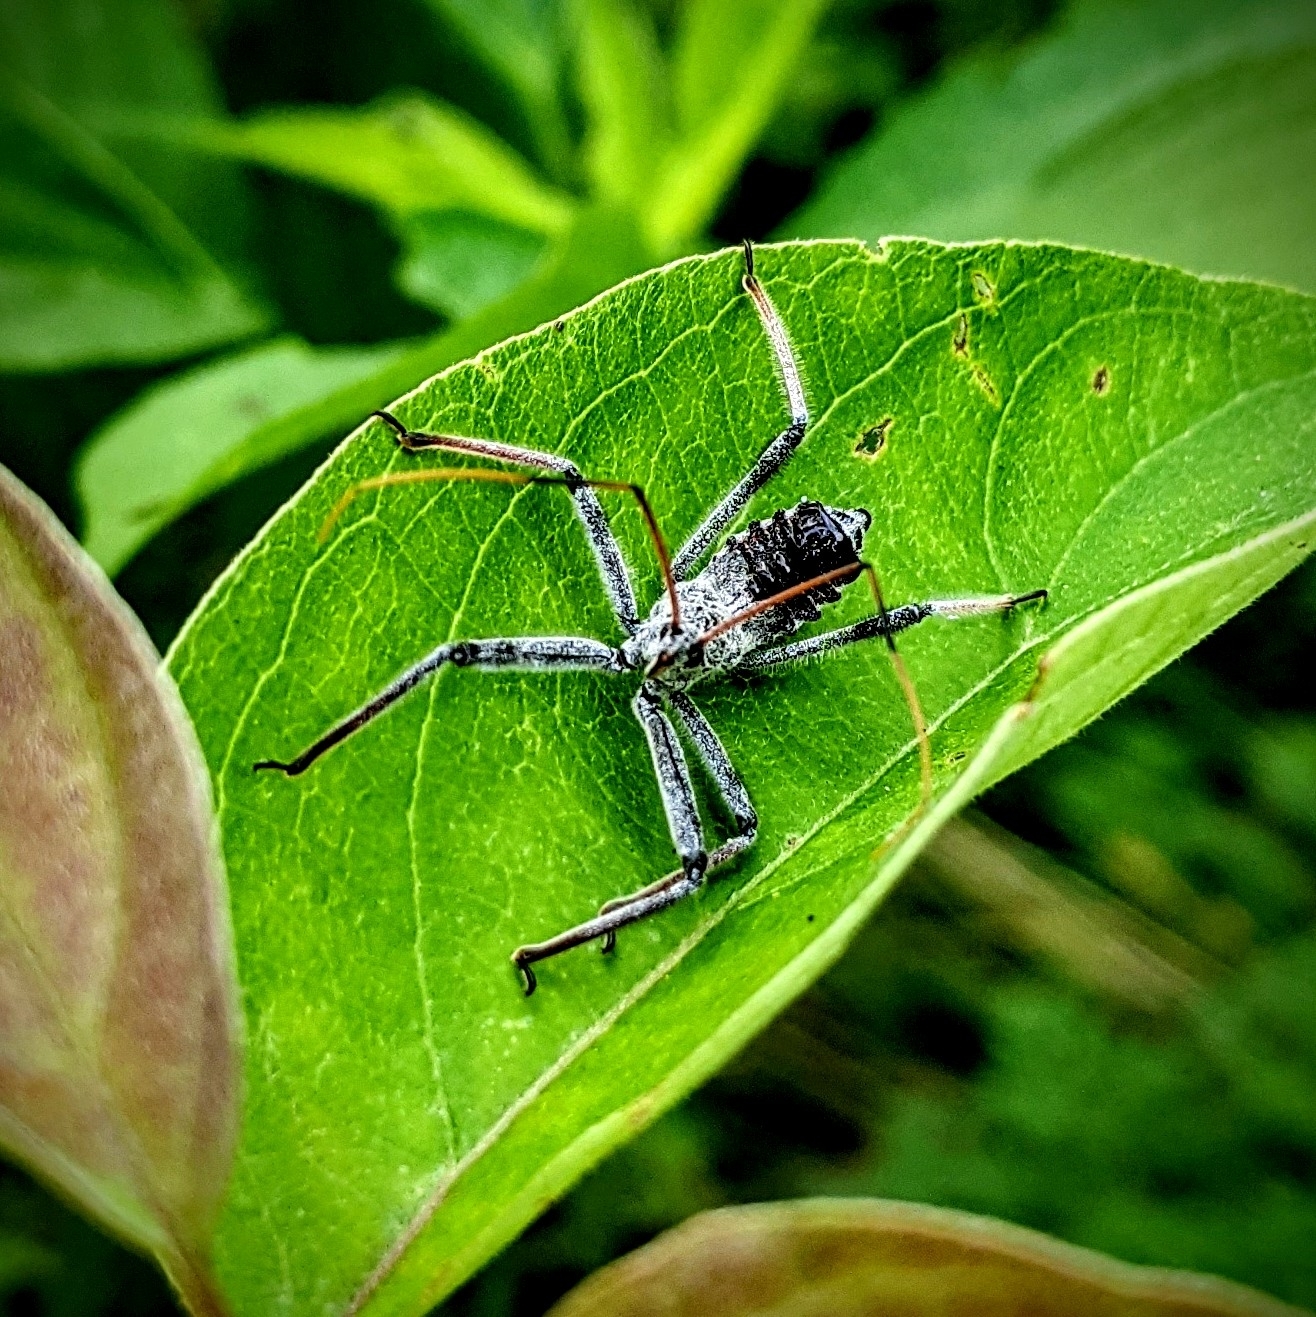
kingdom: Animalia
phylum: Arthropoda
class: Insecta
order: Hemiptera
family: Reduviidae
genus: Arilus
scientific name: Arilus cristatus
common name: North american wheel bug
